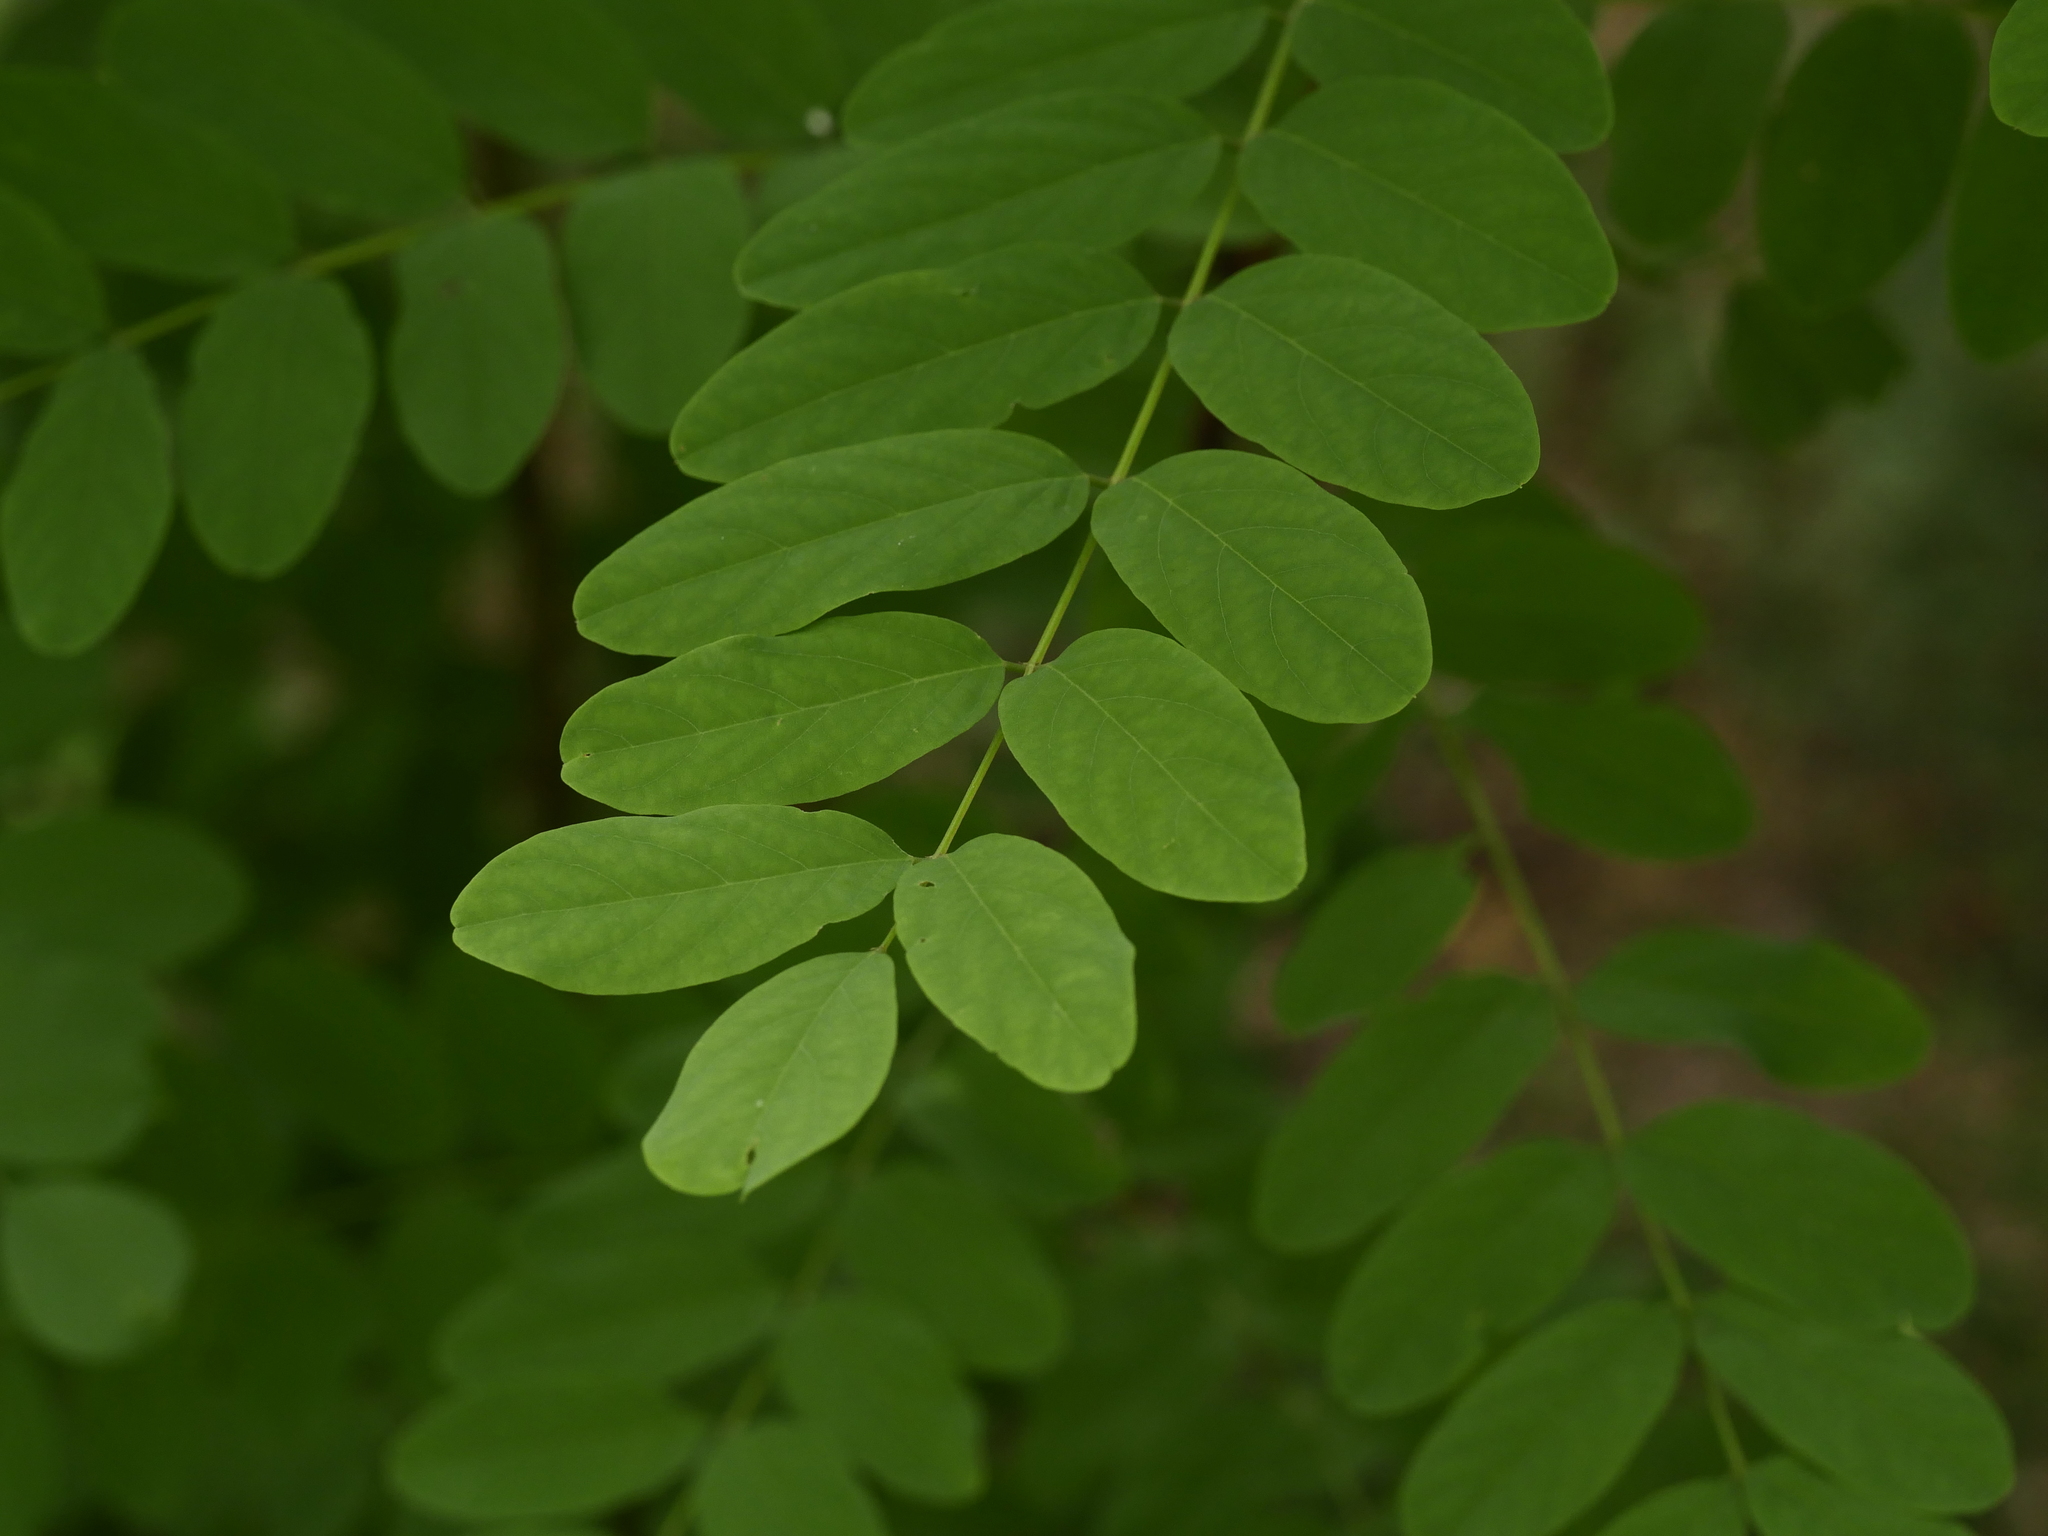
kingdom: Plantae
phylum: Tracheophyta
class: Magnoliopsida
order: Fabales
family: Fabaceae
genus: Robinia
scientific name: Robinia pseudoacacia
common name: Black locust
